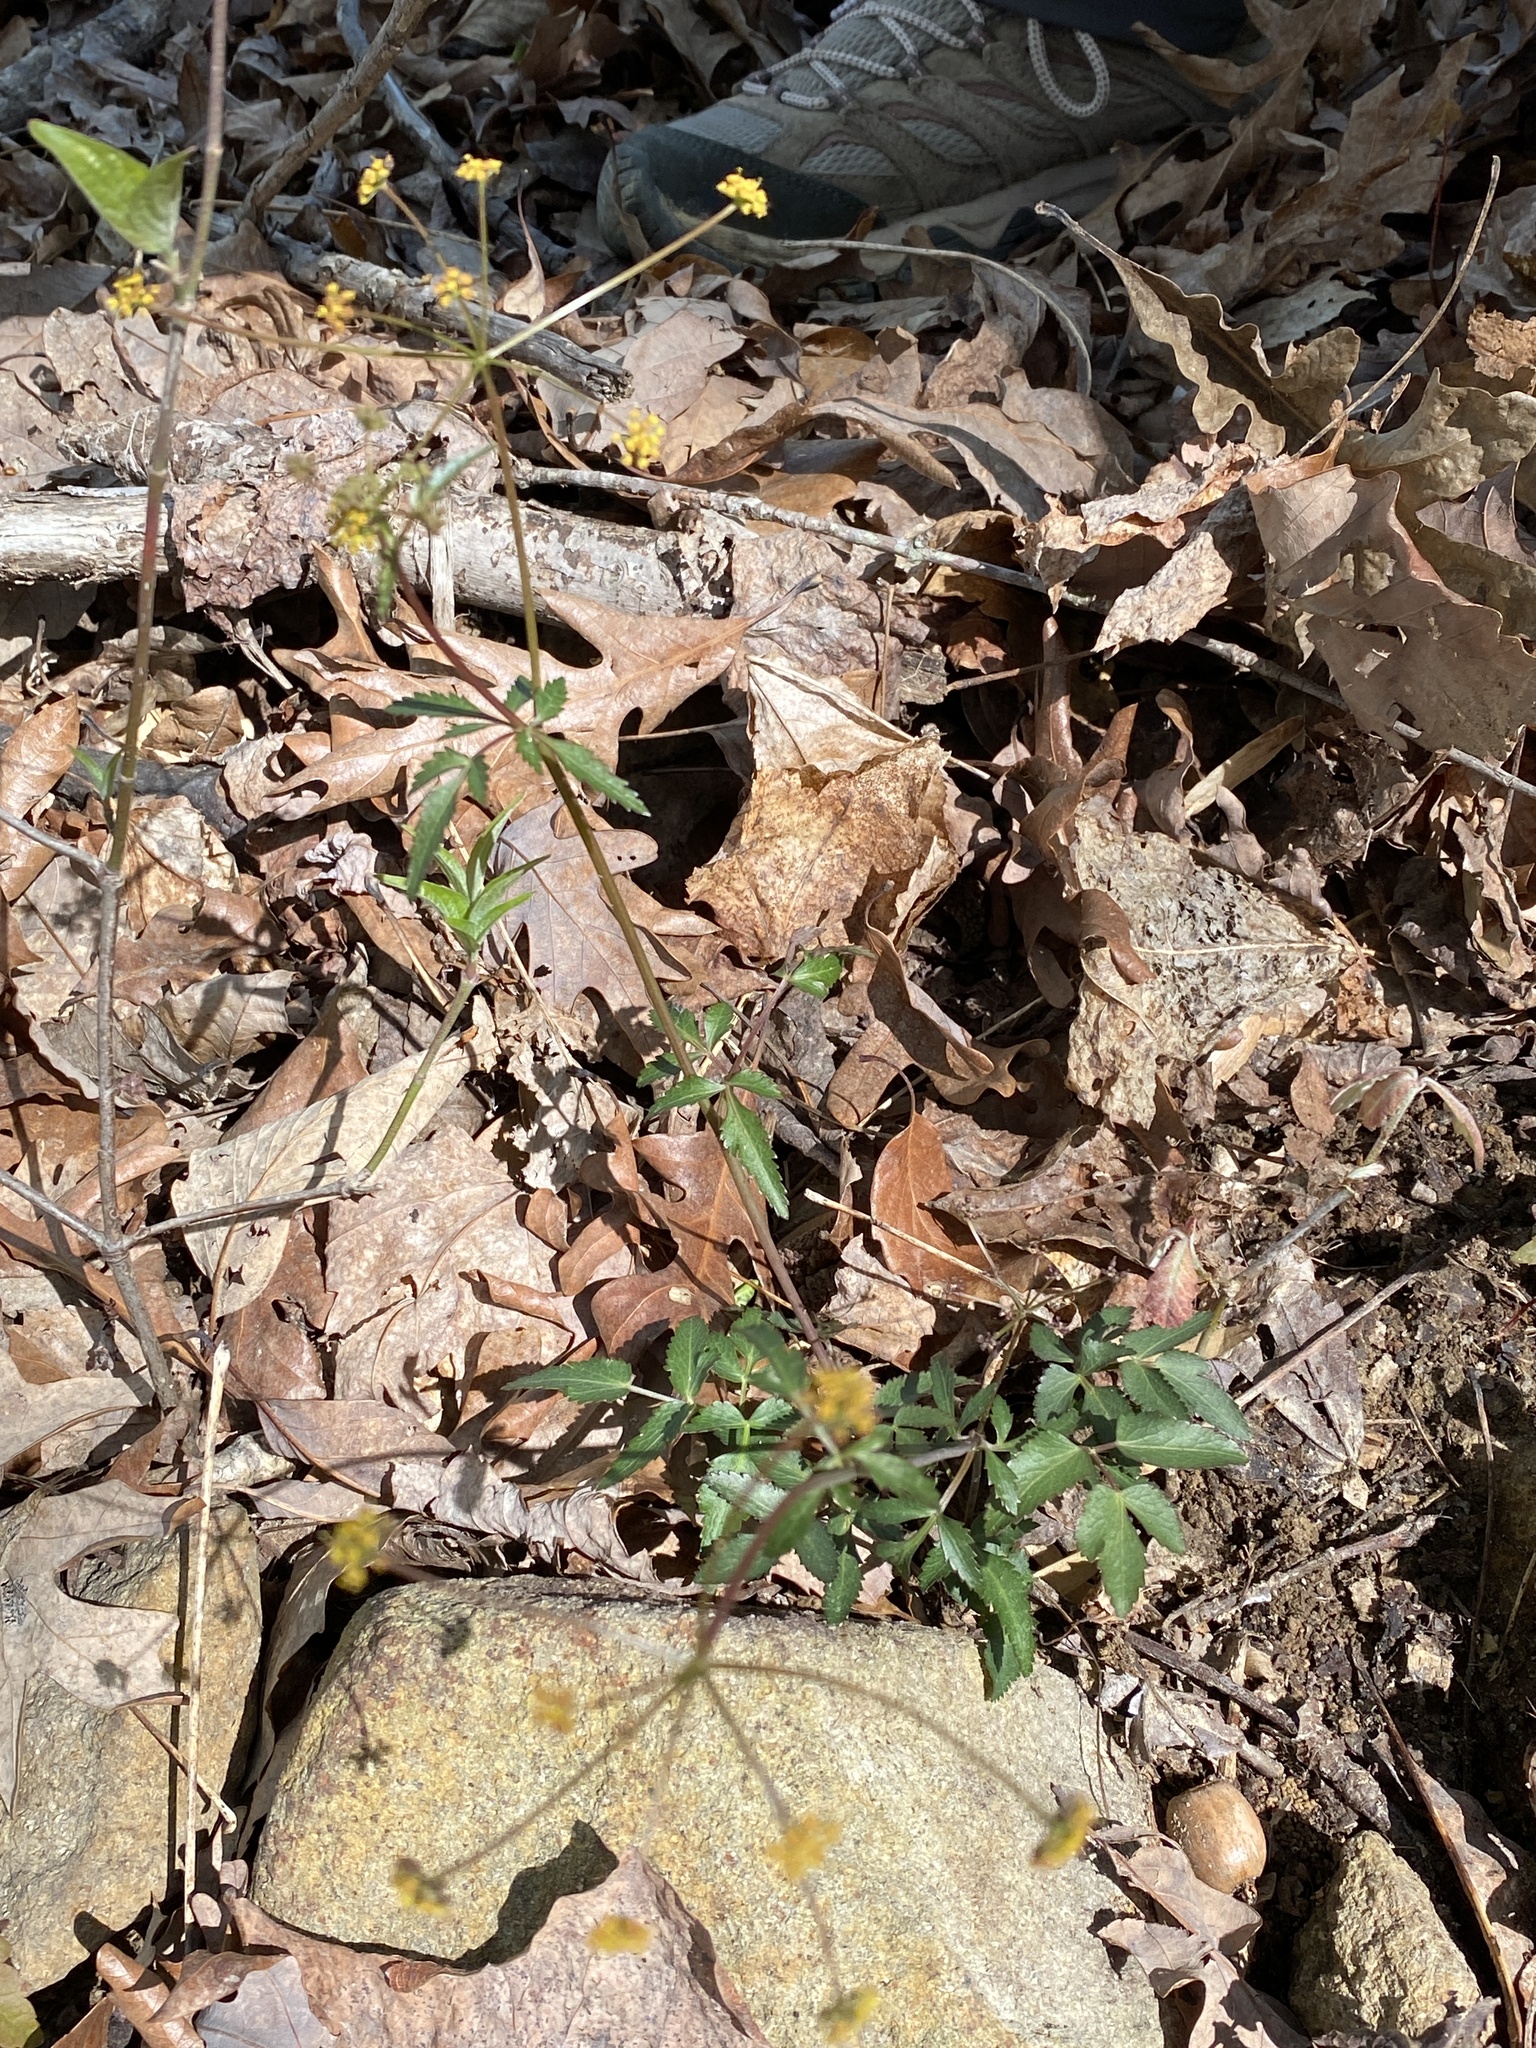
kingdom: Plantae
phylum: Tracheophyta
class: Magnoliopsida
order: Apiales
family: Apiaceae
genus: Thaspium
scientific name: Thaspium trifoliatum
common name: Purple meadow-parsnip
